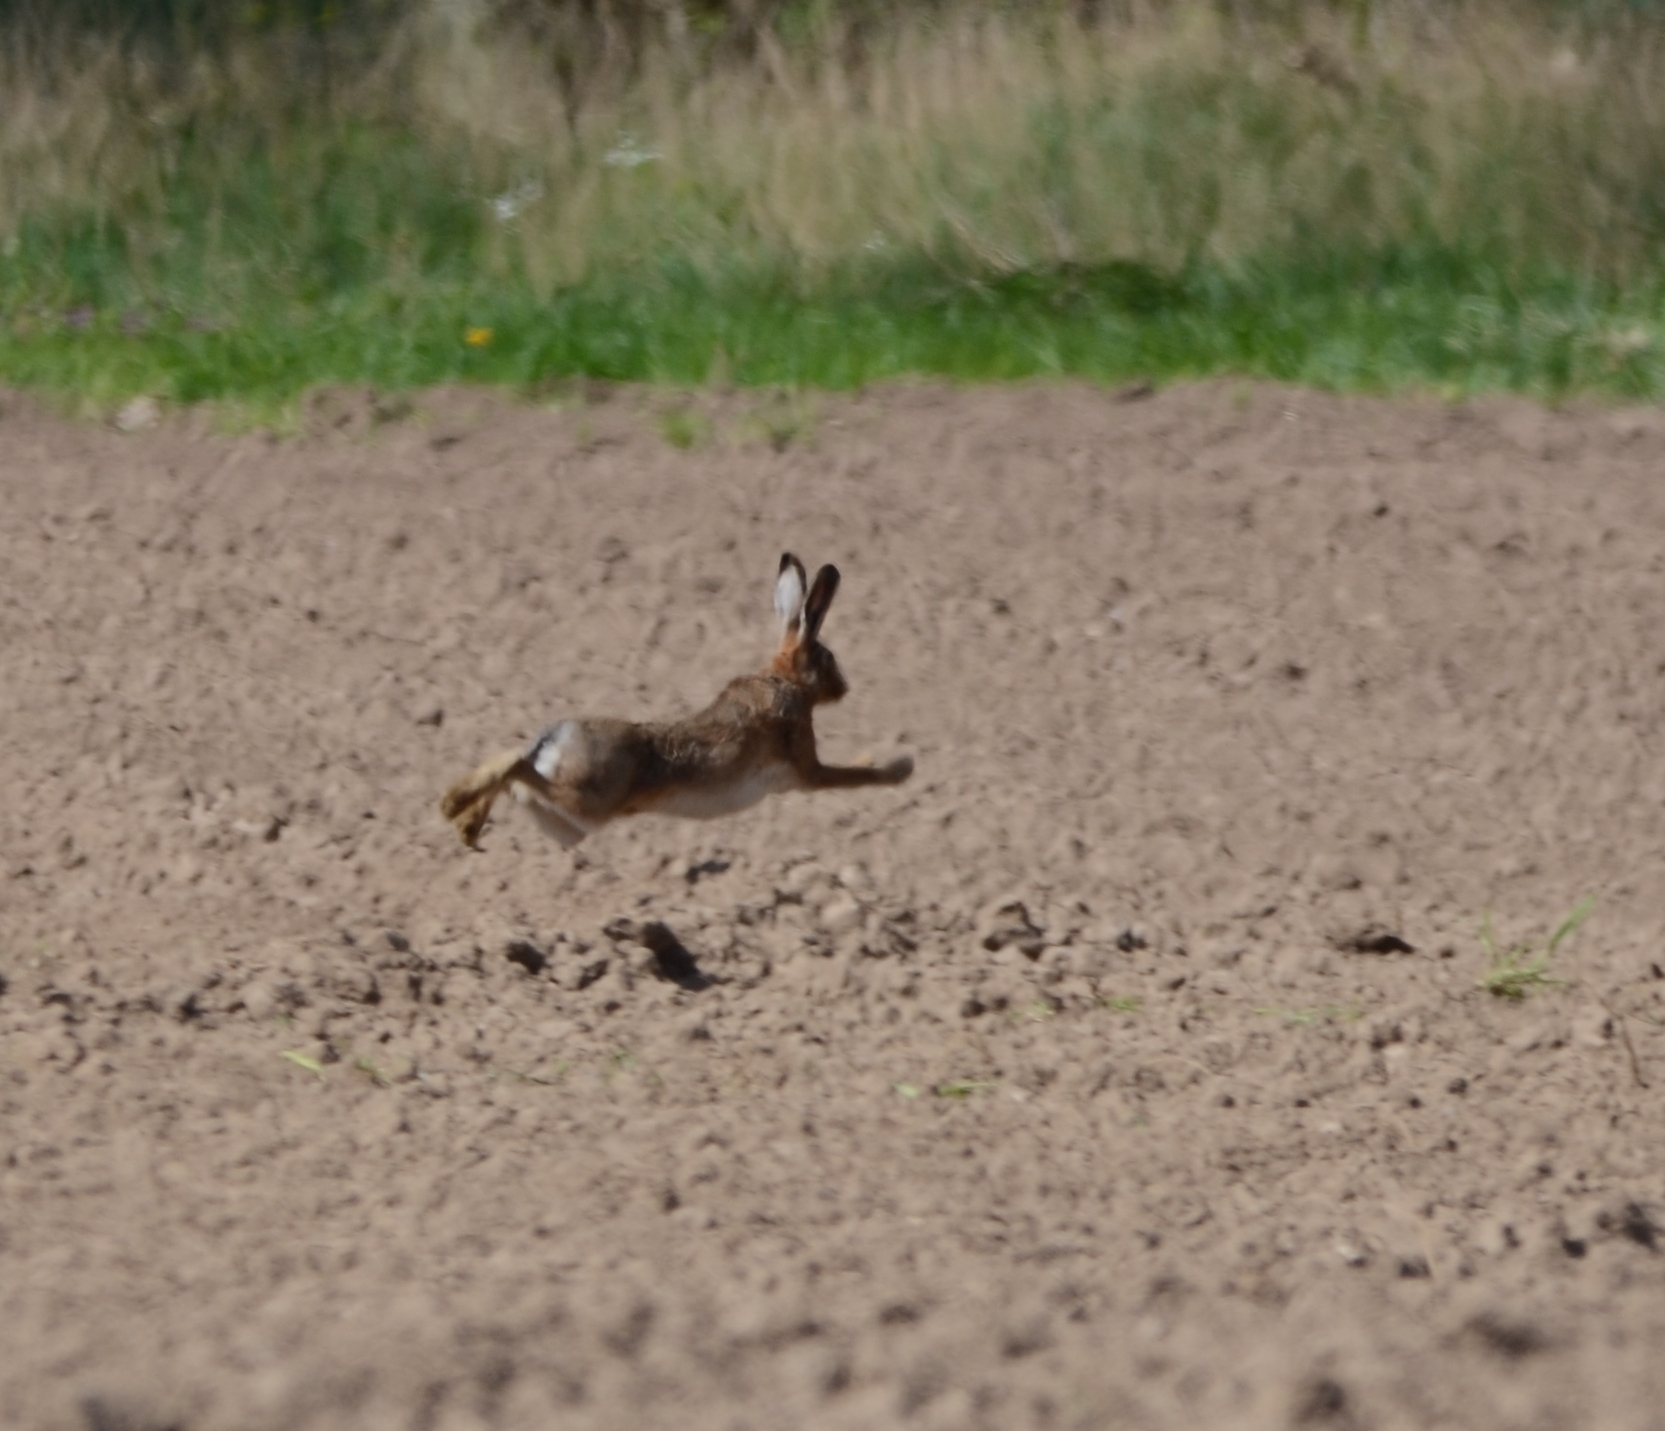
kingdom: Animalia
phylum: Chordata
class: Mammalia
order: Lagomorpha
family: Leporidae
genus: Lepus
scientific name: Lepus europaeus
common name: European hare
